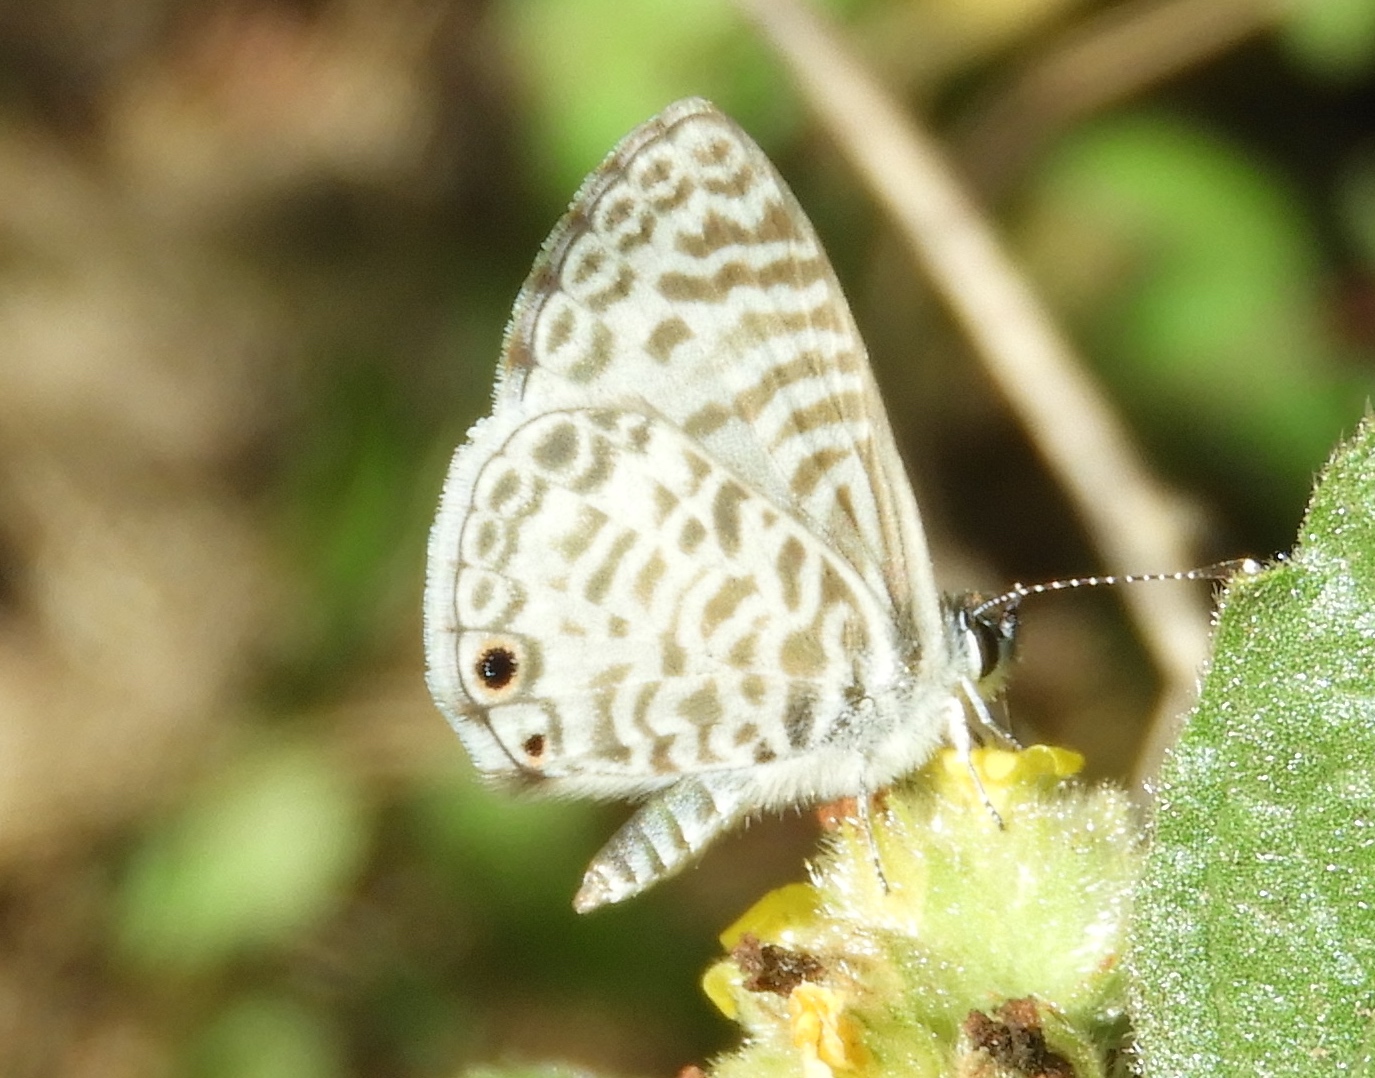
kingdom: Animalia
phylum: Arthropoda
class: Insecta
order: Lepidoptera
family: Lycaenidae
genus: Leptotes
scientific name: Leptotes theonus
